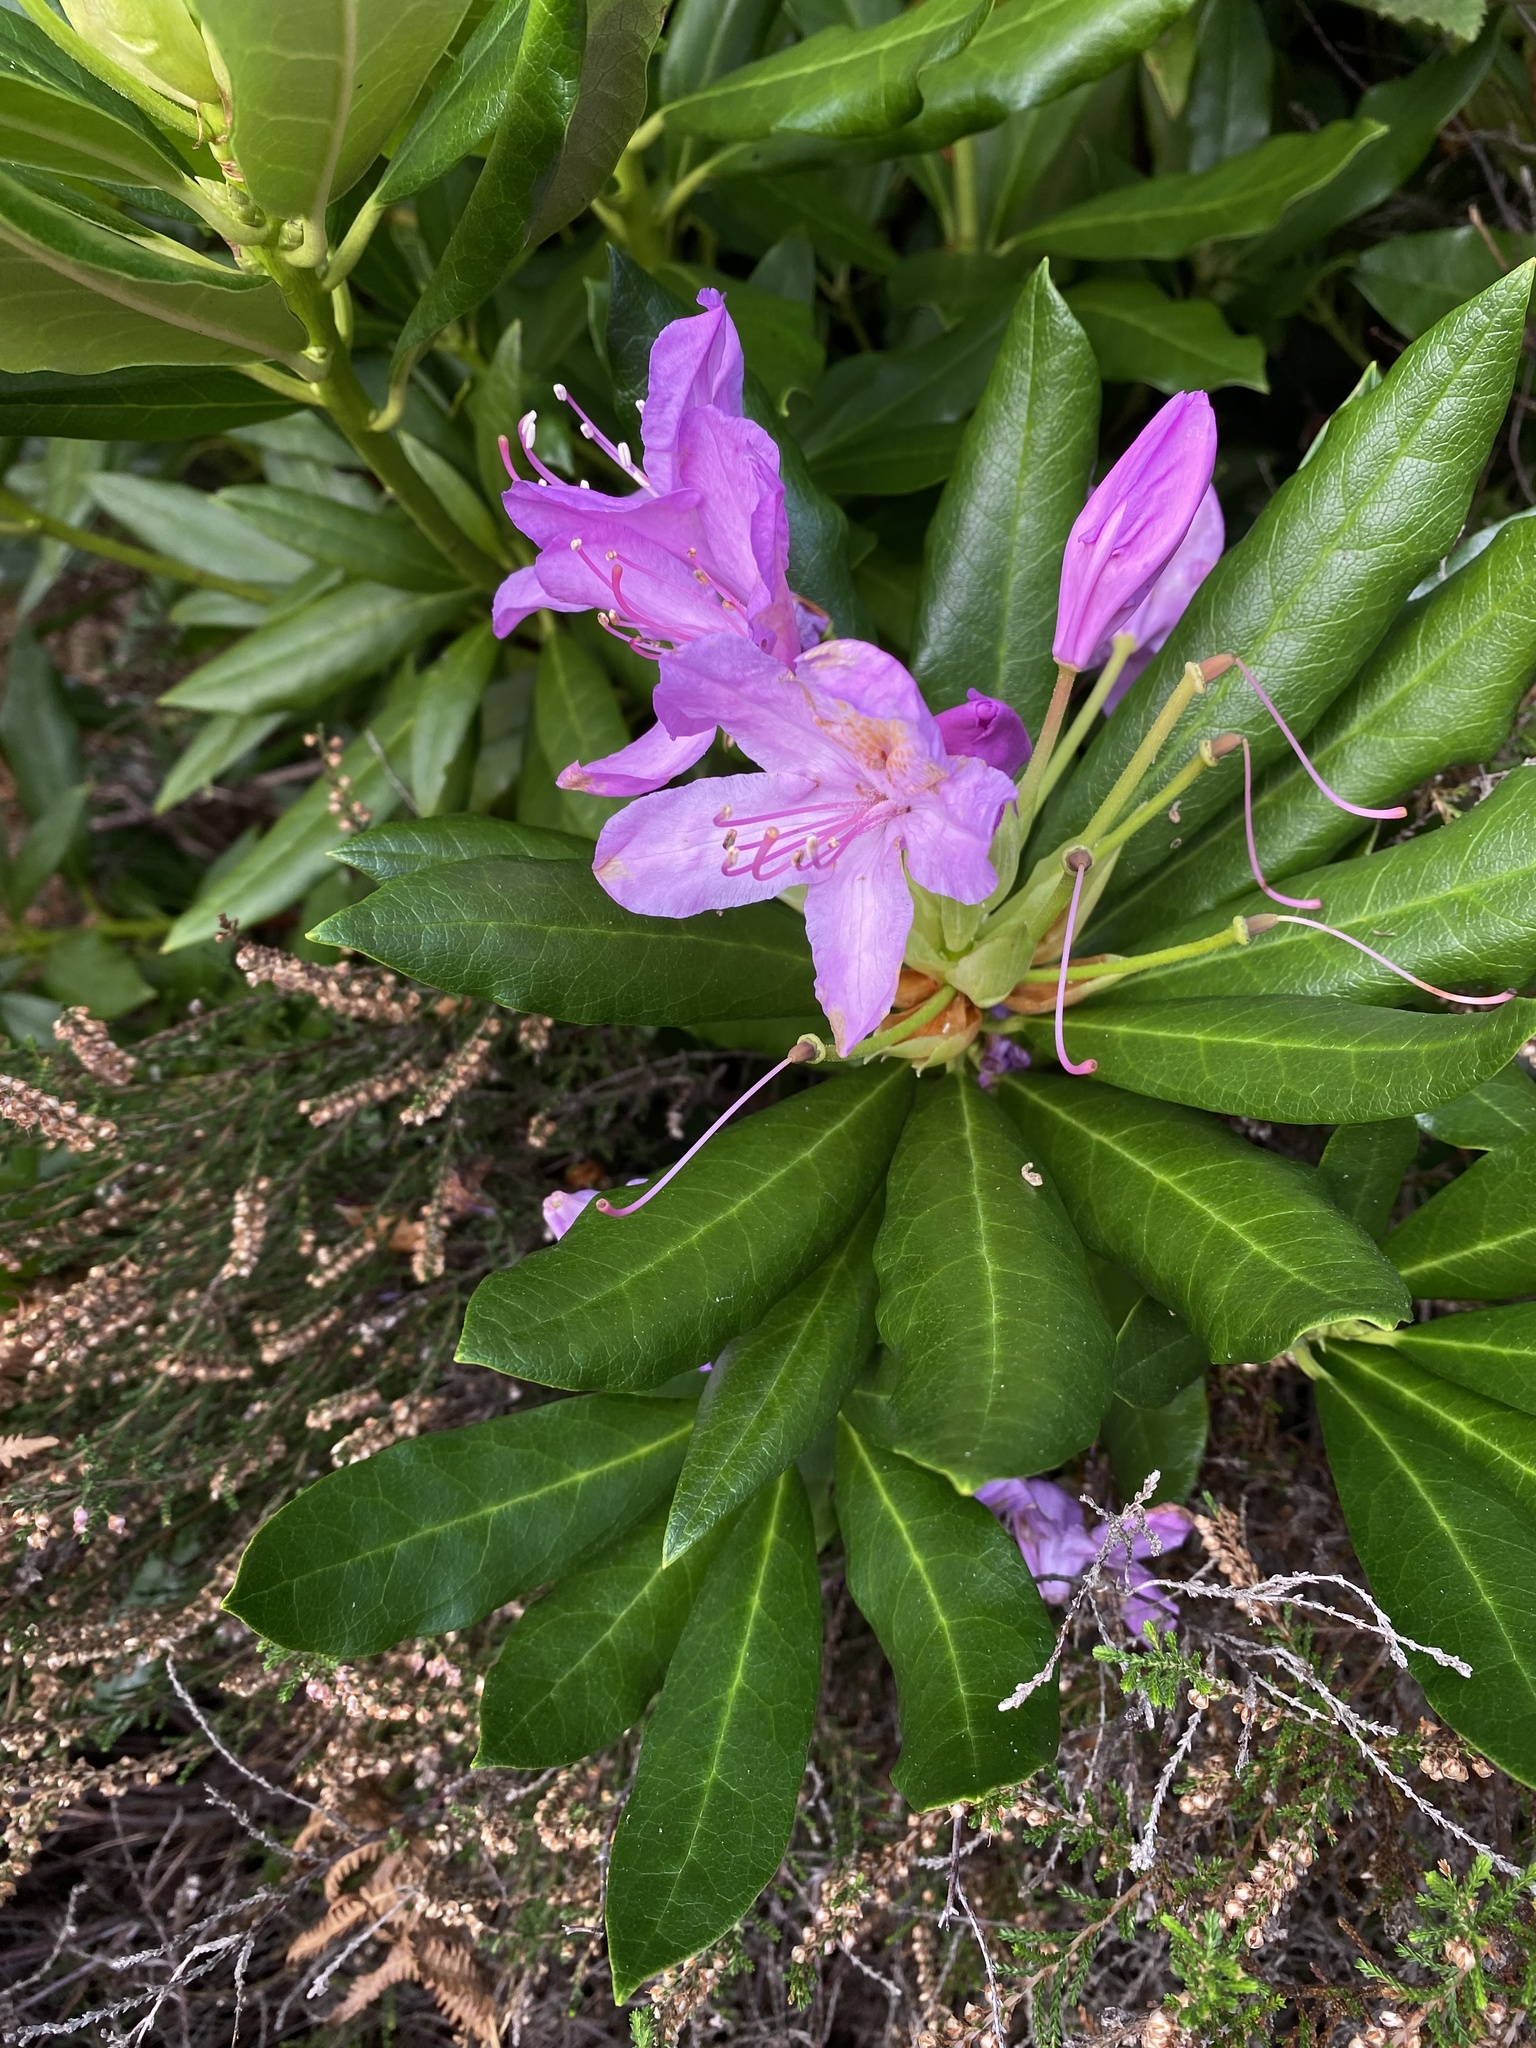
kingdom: Plantae
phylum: Tracheophyta
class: Magnoliopsida
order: Ericales
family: Ericaceae
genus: Rhododendron
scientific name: Rhododendron ponticum
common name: Rhododendron
